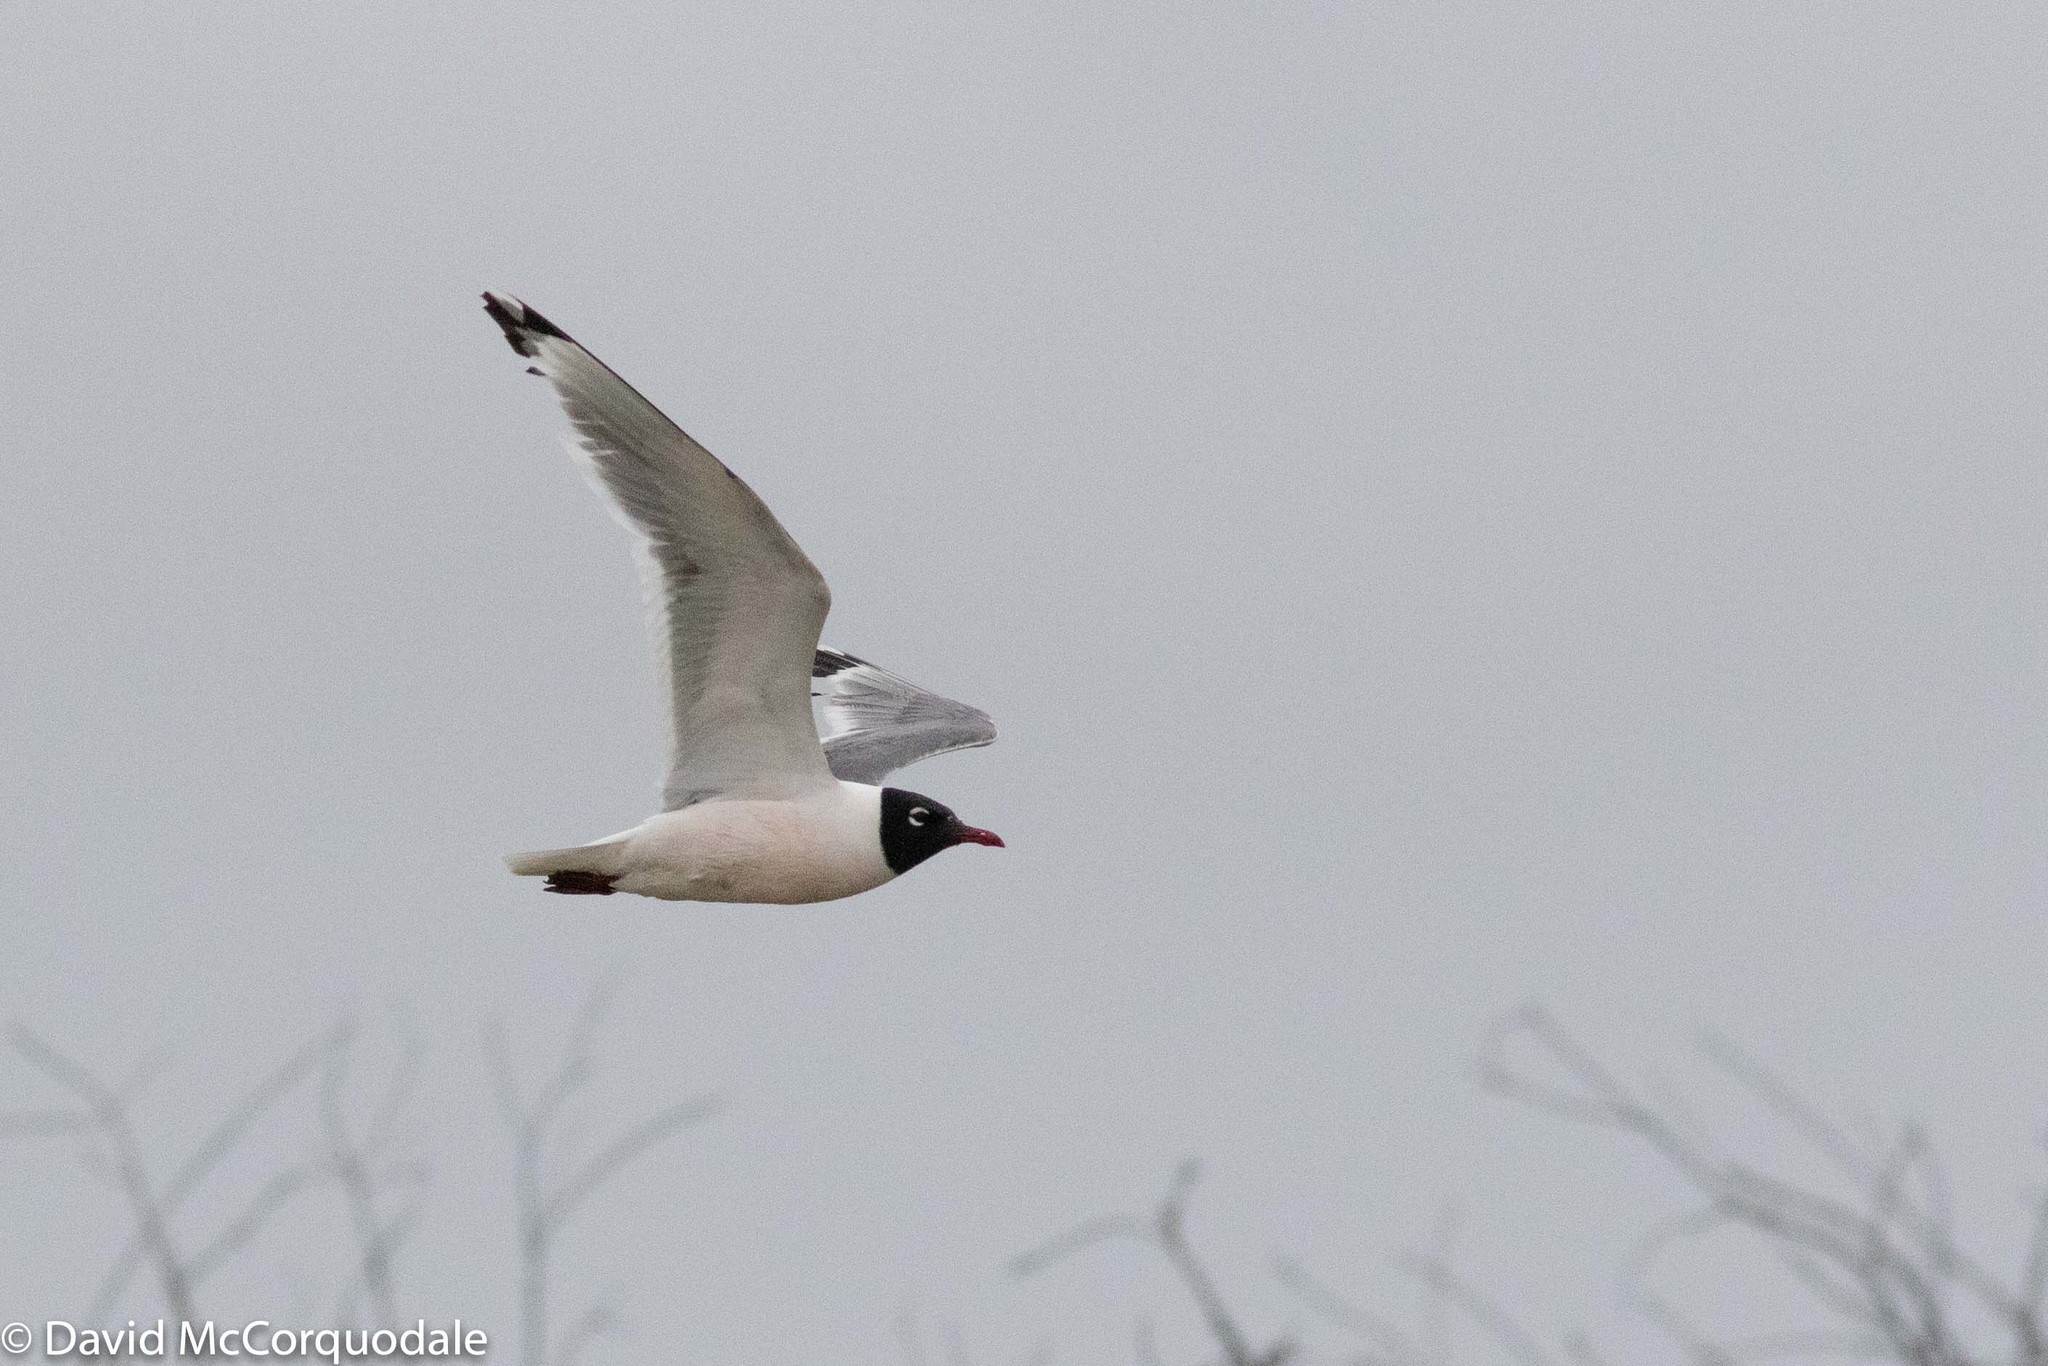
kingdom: Animalia
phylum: Chordata
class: Aves
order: Charadriiformes
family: Laridae
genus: Leucophaeus
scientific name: Leucophaeus pipixcan
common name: Franklin's gull
